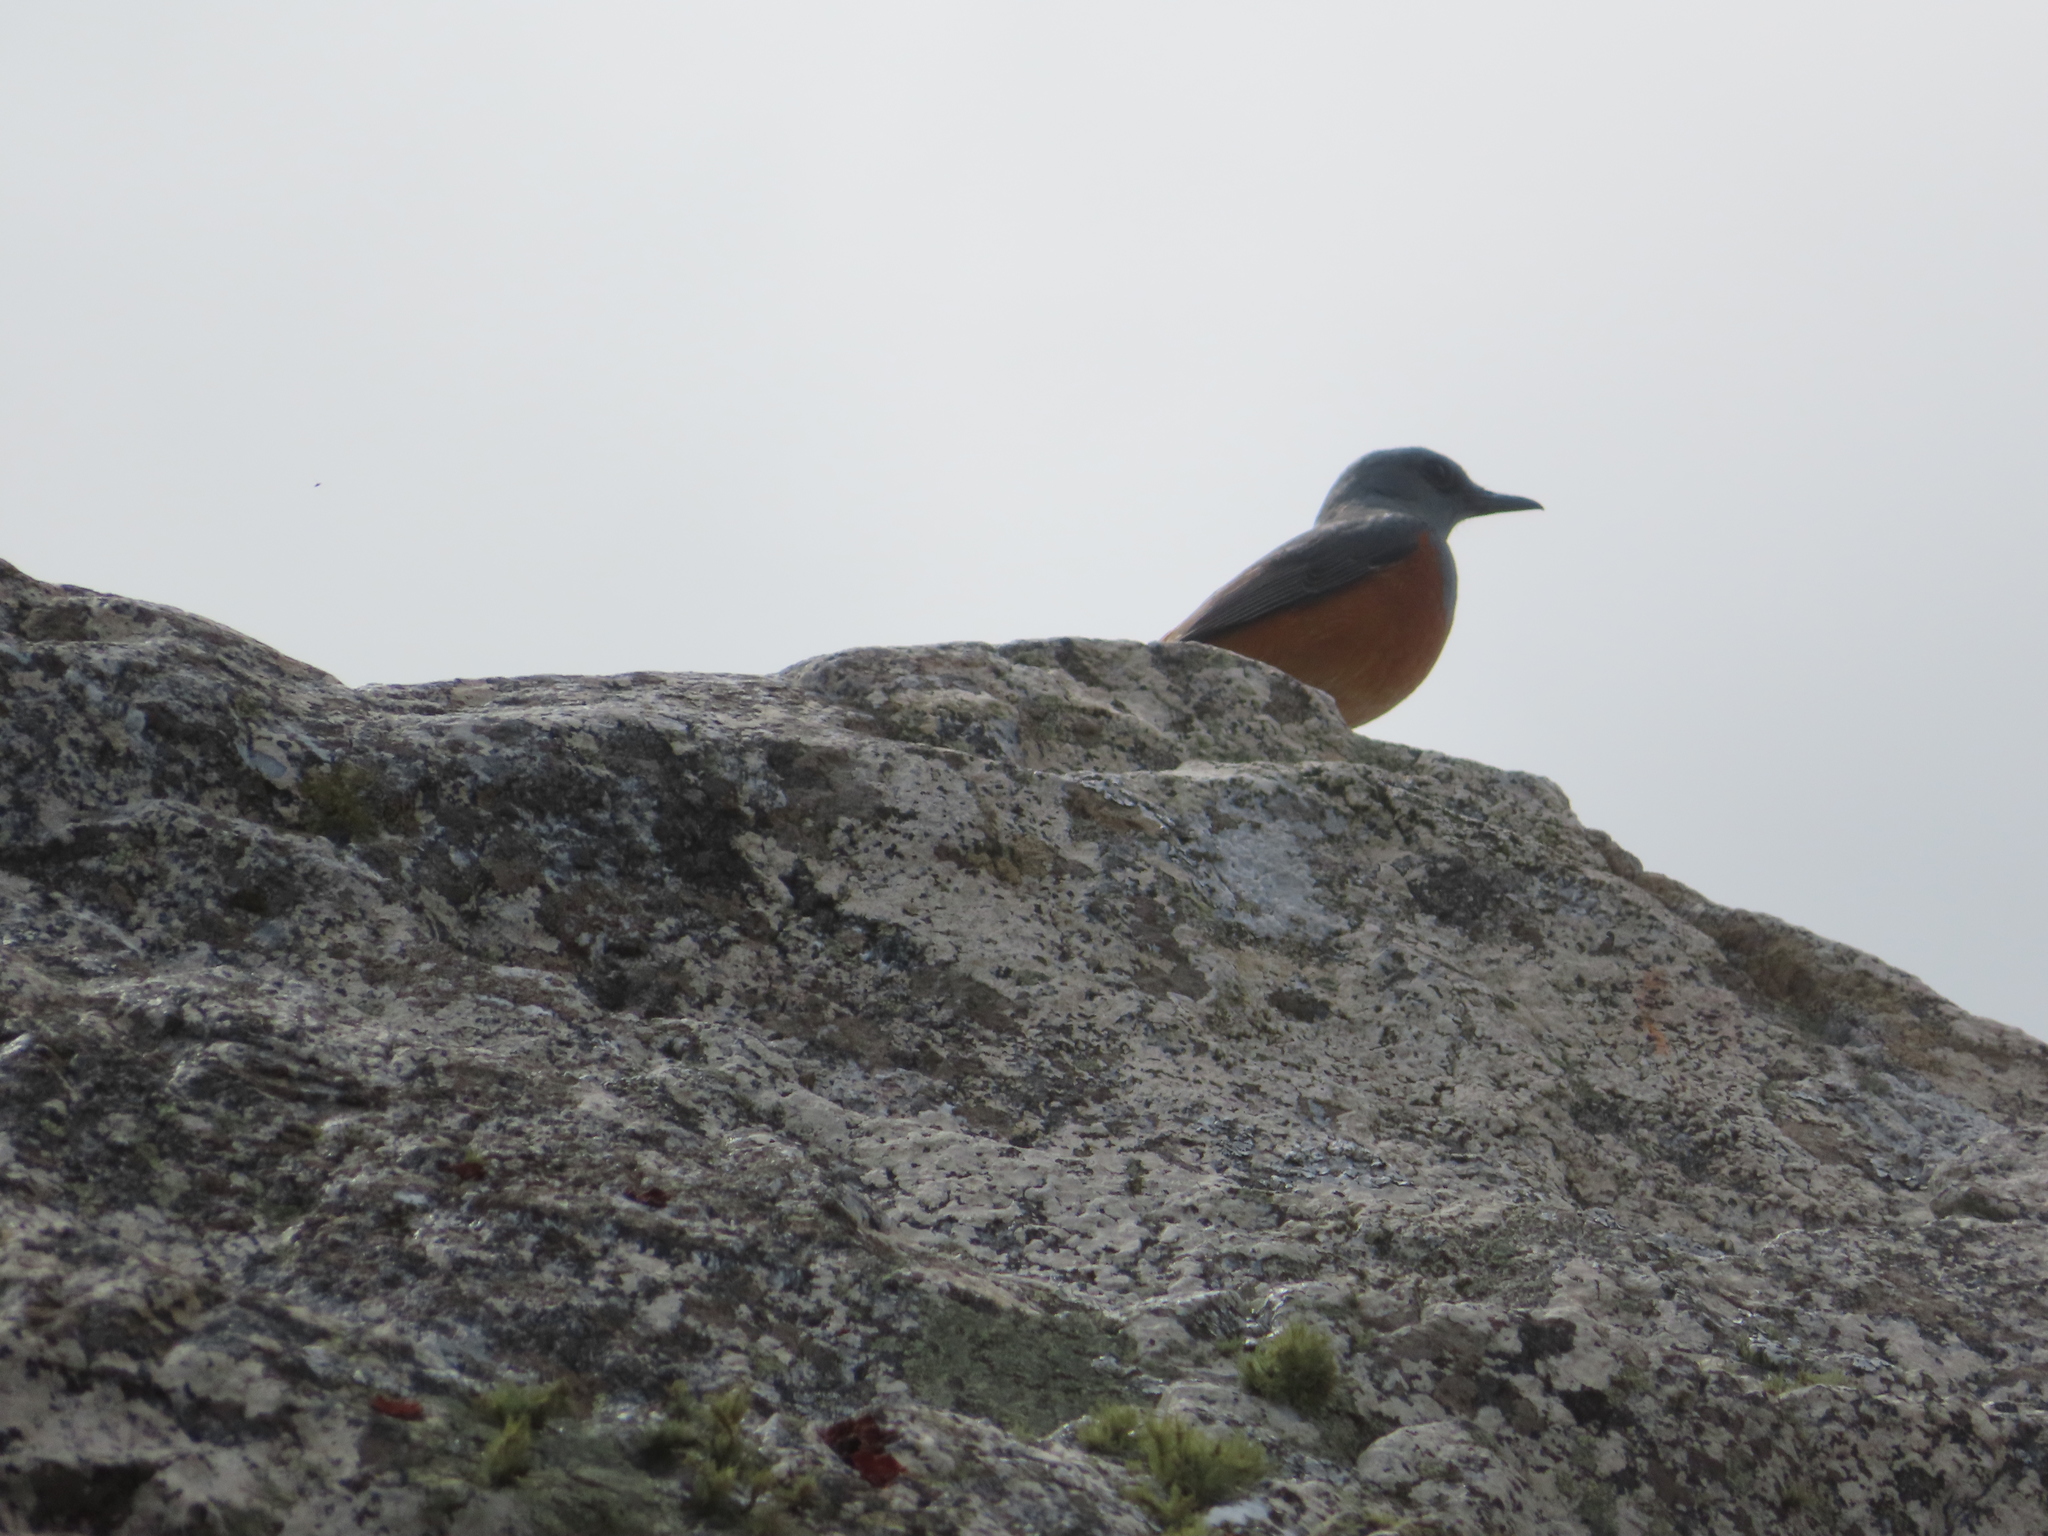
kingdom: Animalia
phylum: Chordata
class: Aves
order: Passeriformes
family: Muscicapidae
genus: Monticola
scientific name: Monticola explorator
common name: Sentinel rock thrush
